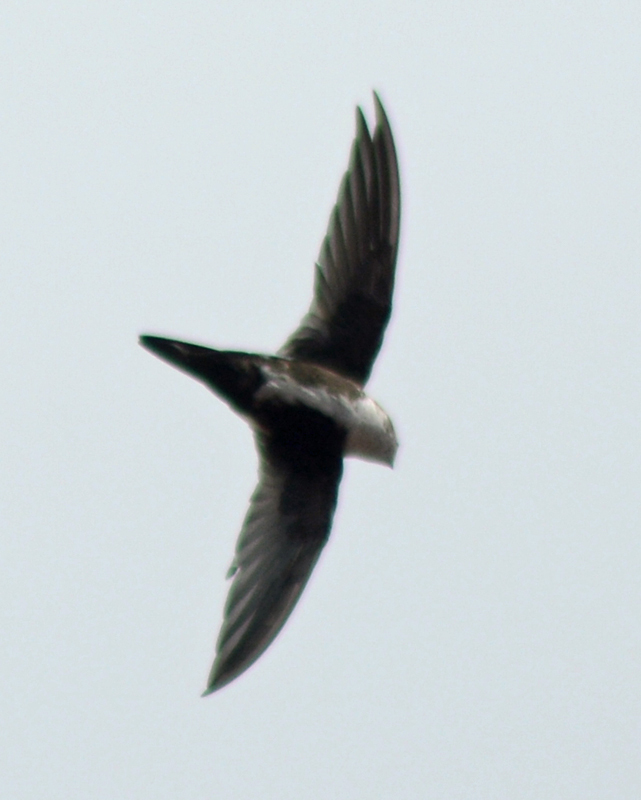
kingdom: Animalia
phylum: Chordata
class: Aves
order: Apodiformes
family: Apodidae
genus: Aeronautes
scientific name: Aeronautes saxatalis
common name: White-throated swift
